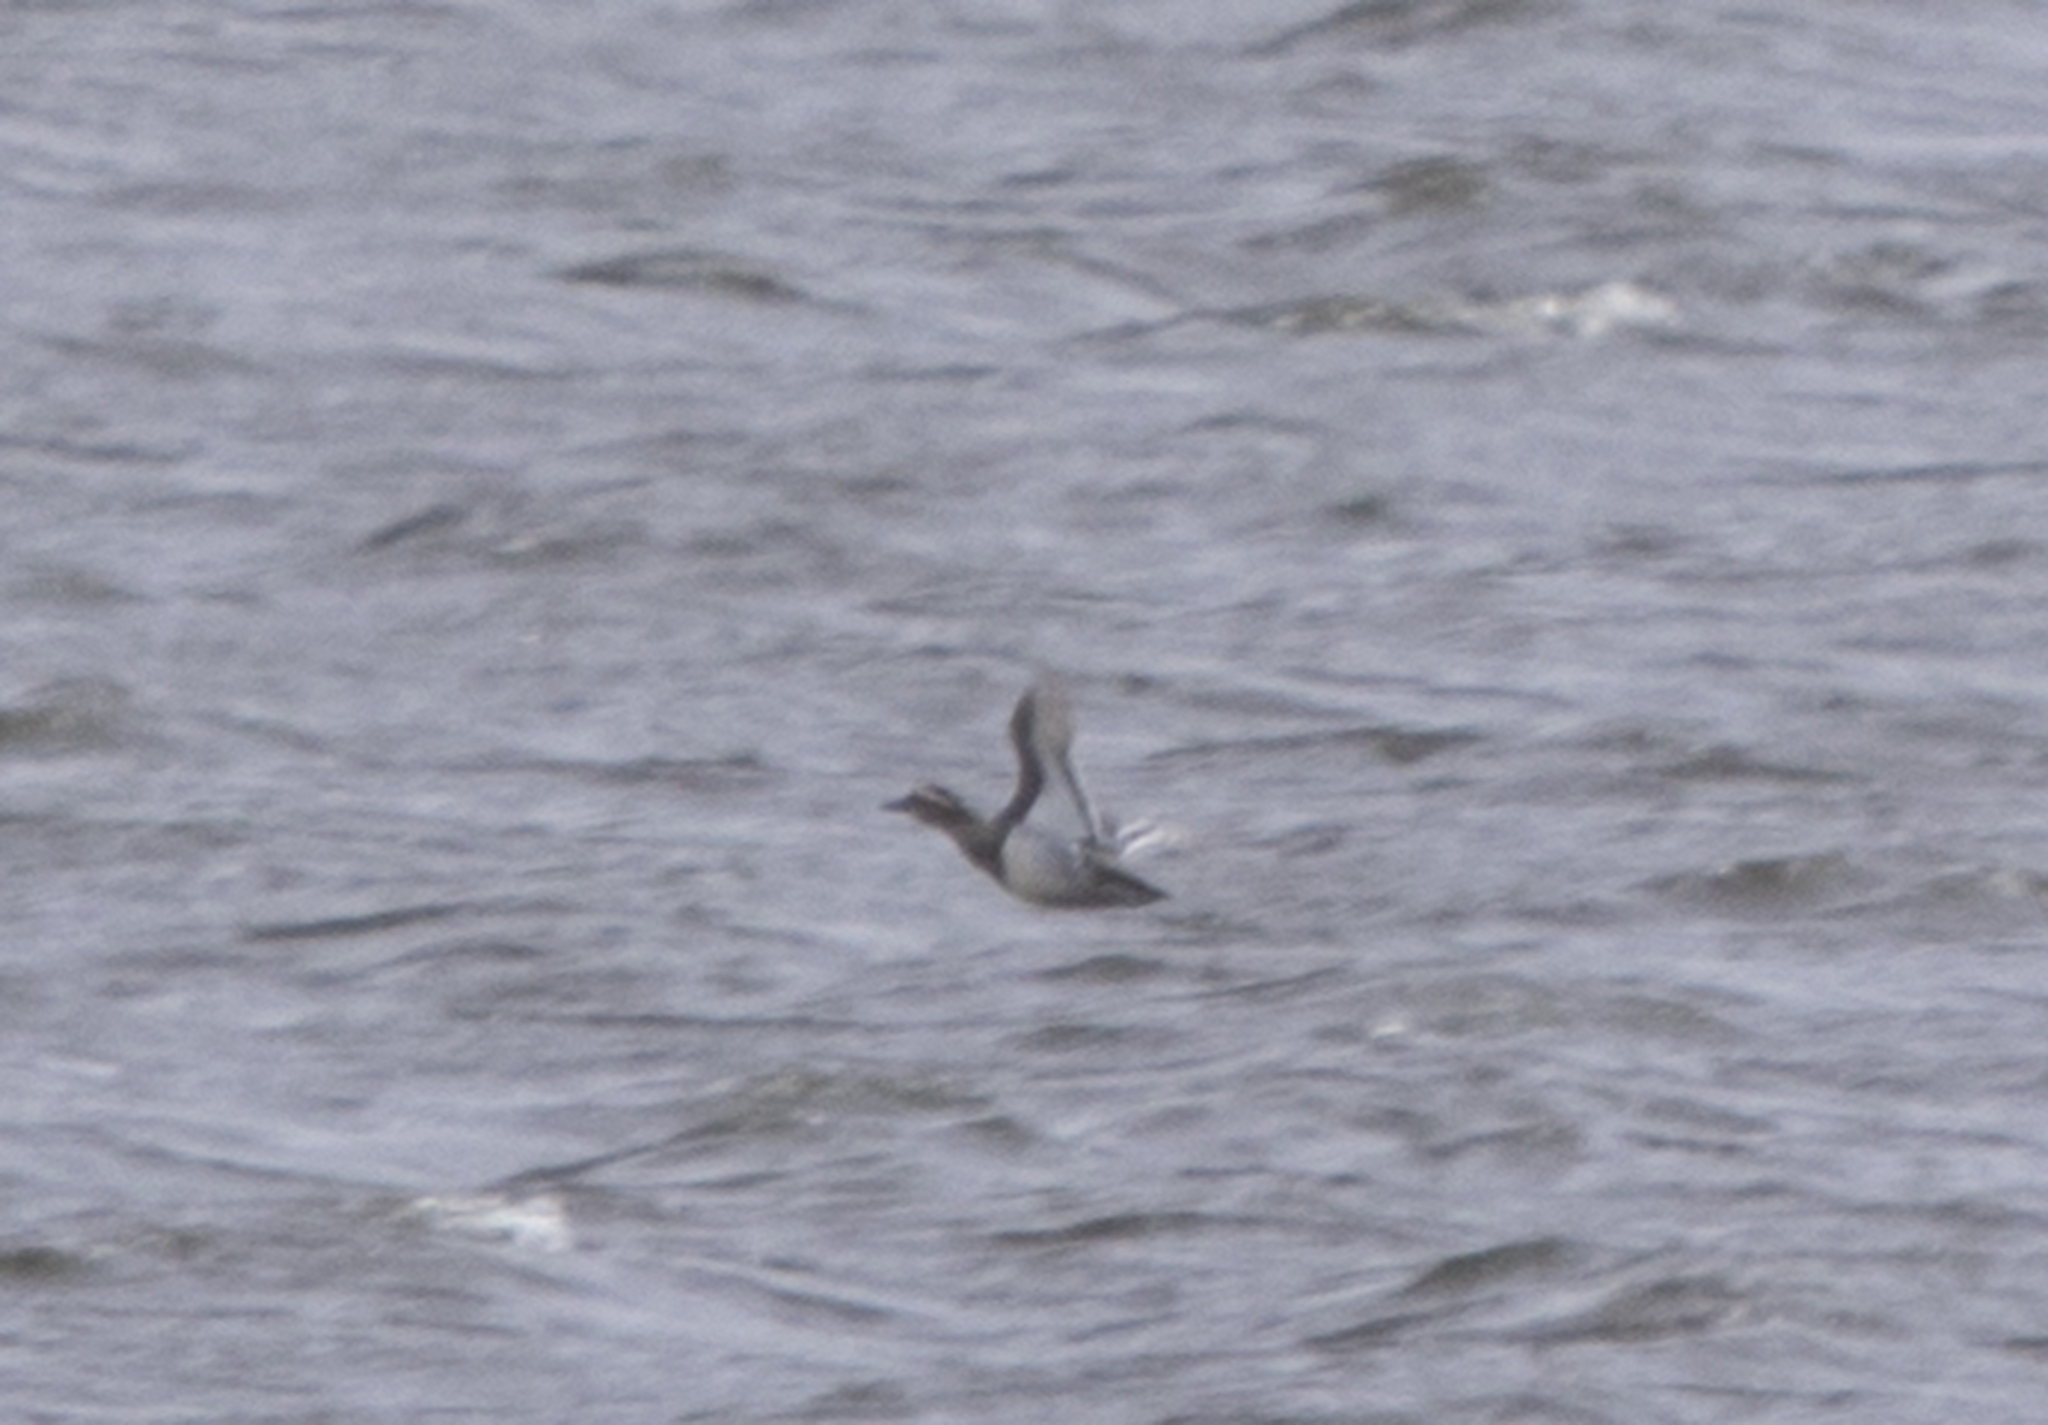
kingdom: Animalia
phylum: Chordata
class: Aves
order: Anseriformes
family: Anatidae
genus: Spatula
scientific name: Spatula querquedula
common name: Garganey
